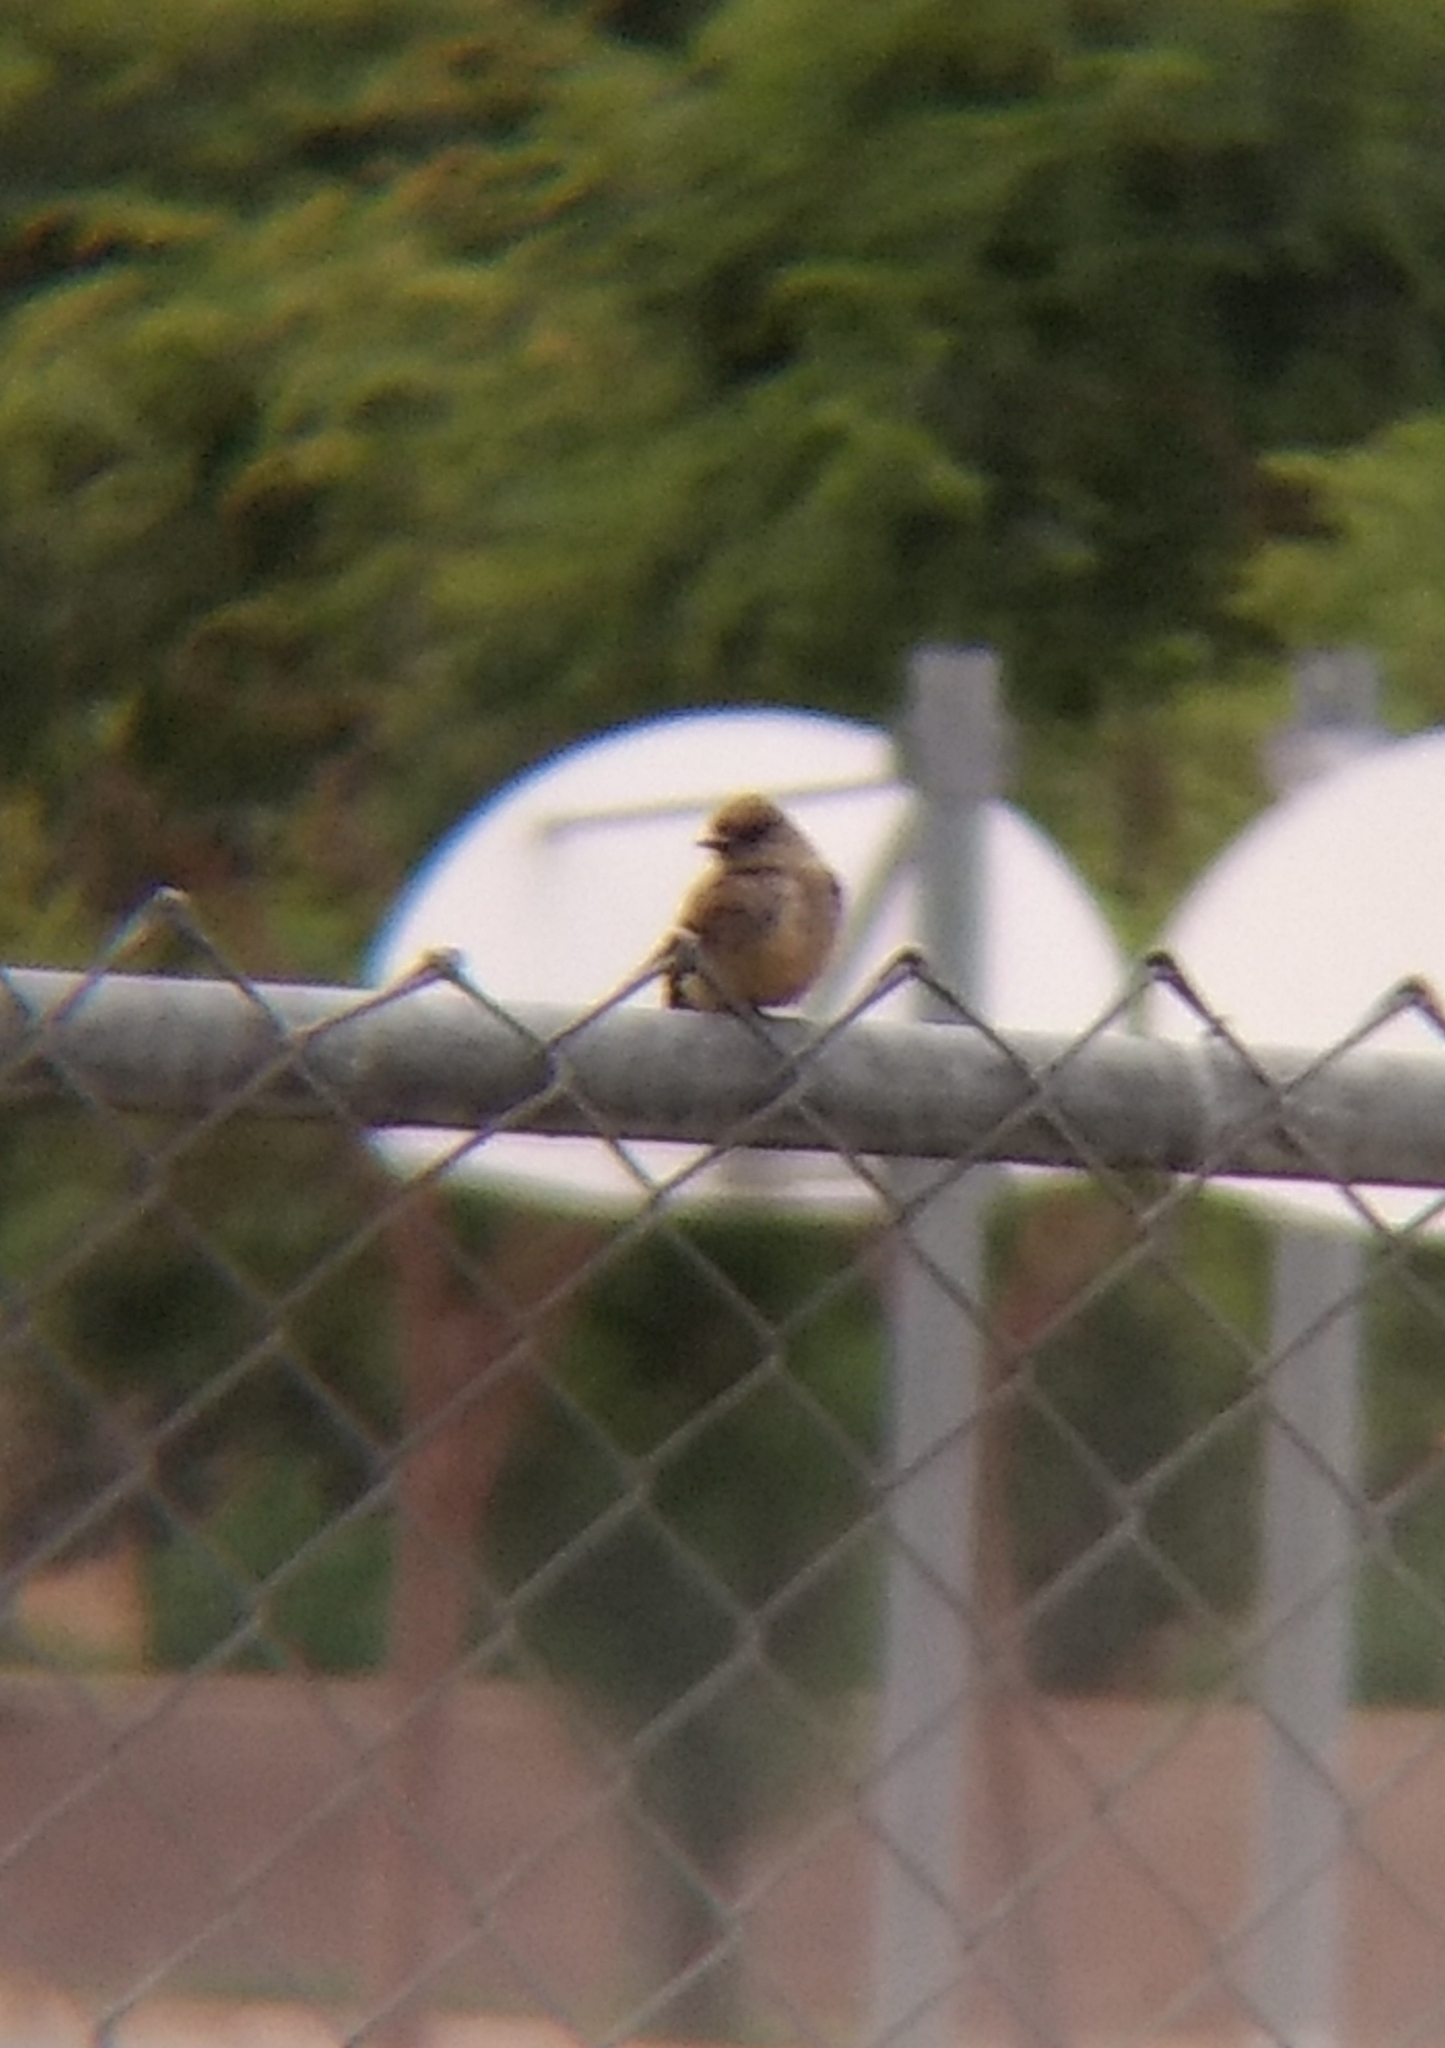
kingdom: Animalia
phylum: Chordata
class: Aves
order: Passeriformes
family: Tyrannidae
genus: Sayornis
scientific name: Sayornis saya
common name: Say's phoebe
